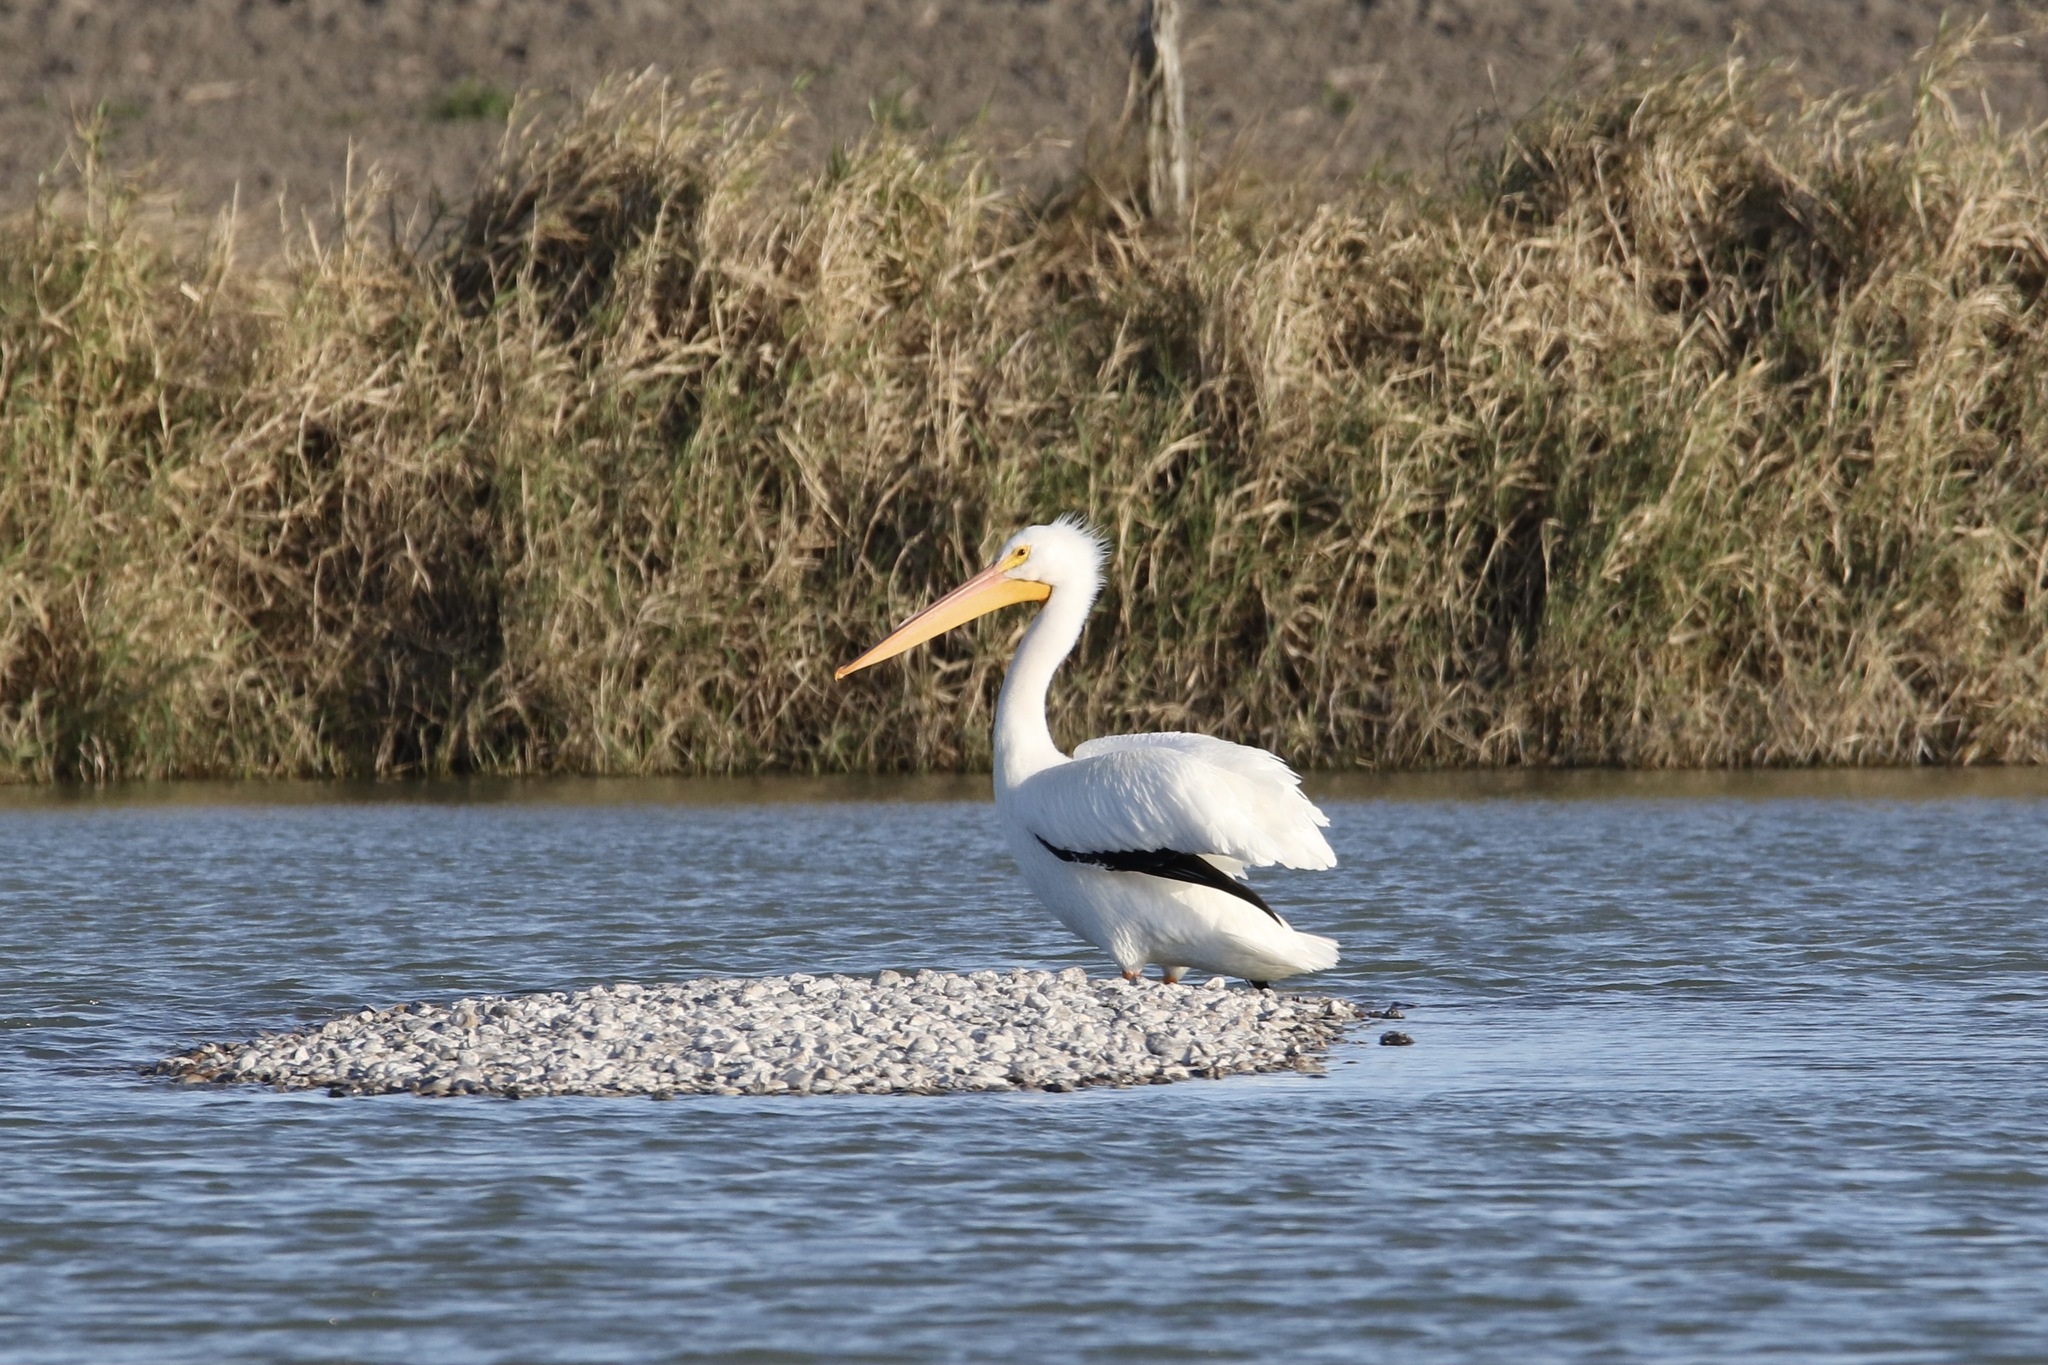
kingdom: Animalia
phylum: Chordata
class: Aves
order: Pelecaniformes
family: Pelecanidae
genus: Pelecanus
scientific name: Pelecanus erythrorhynchos
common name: American white pelican
